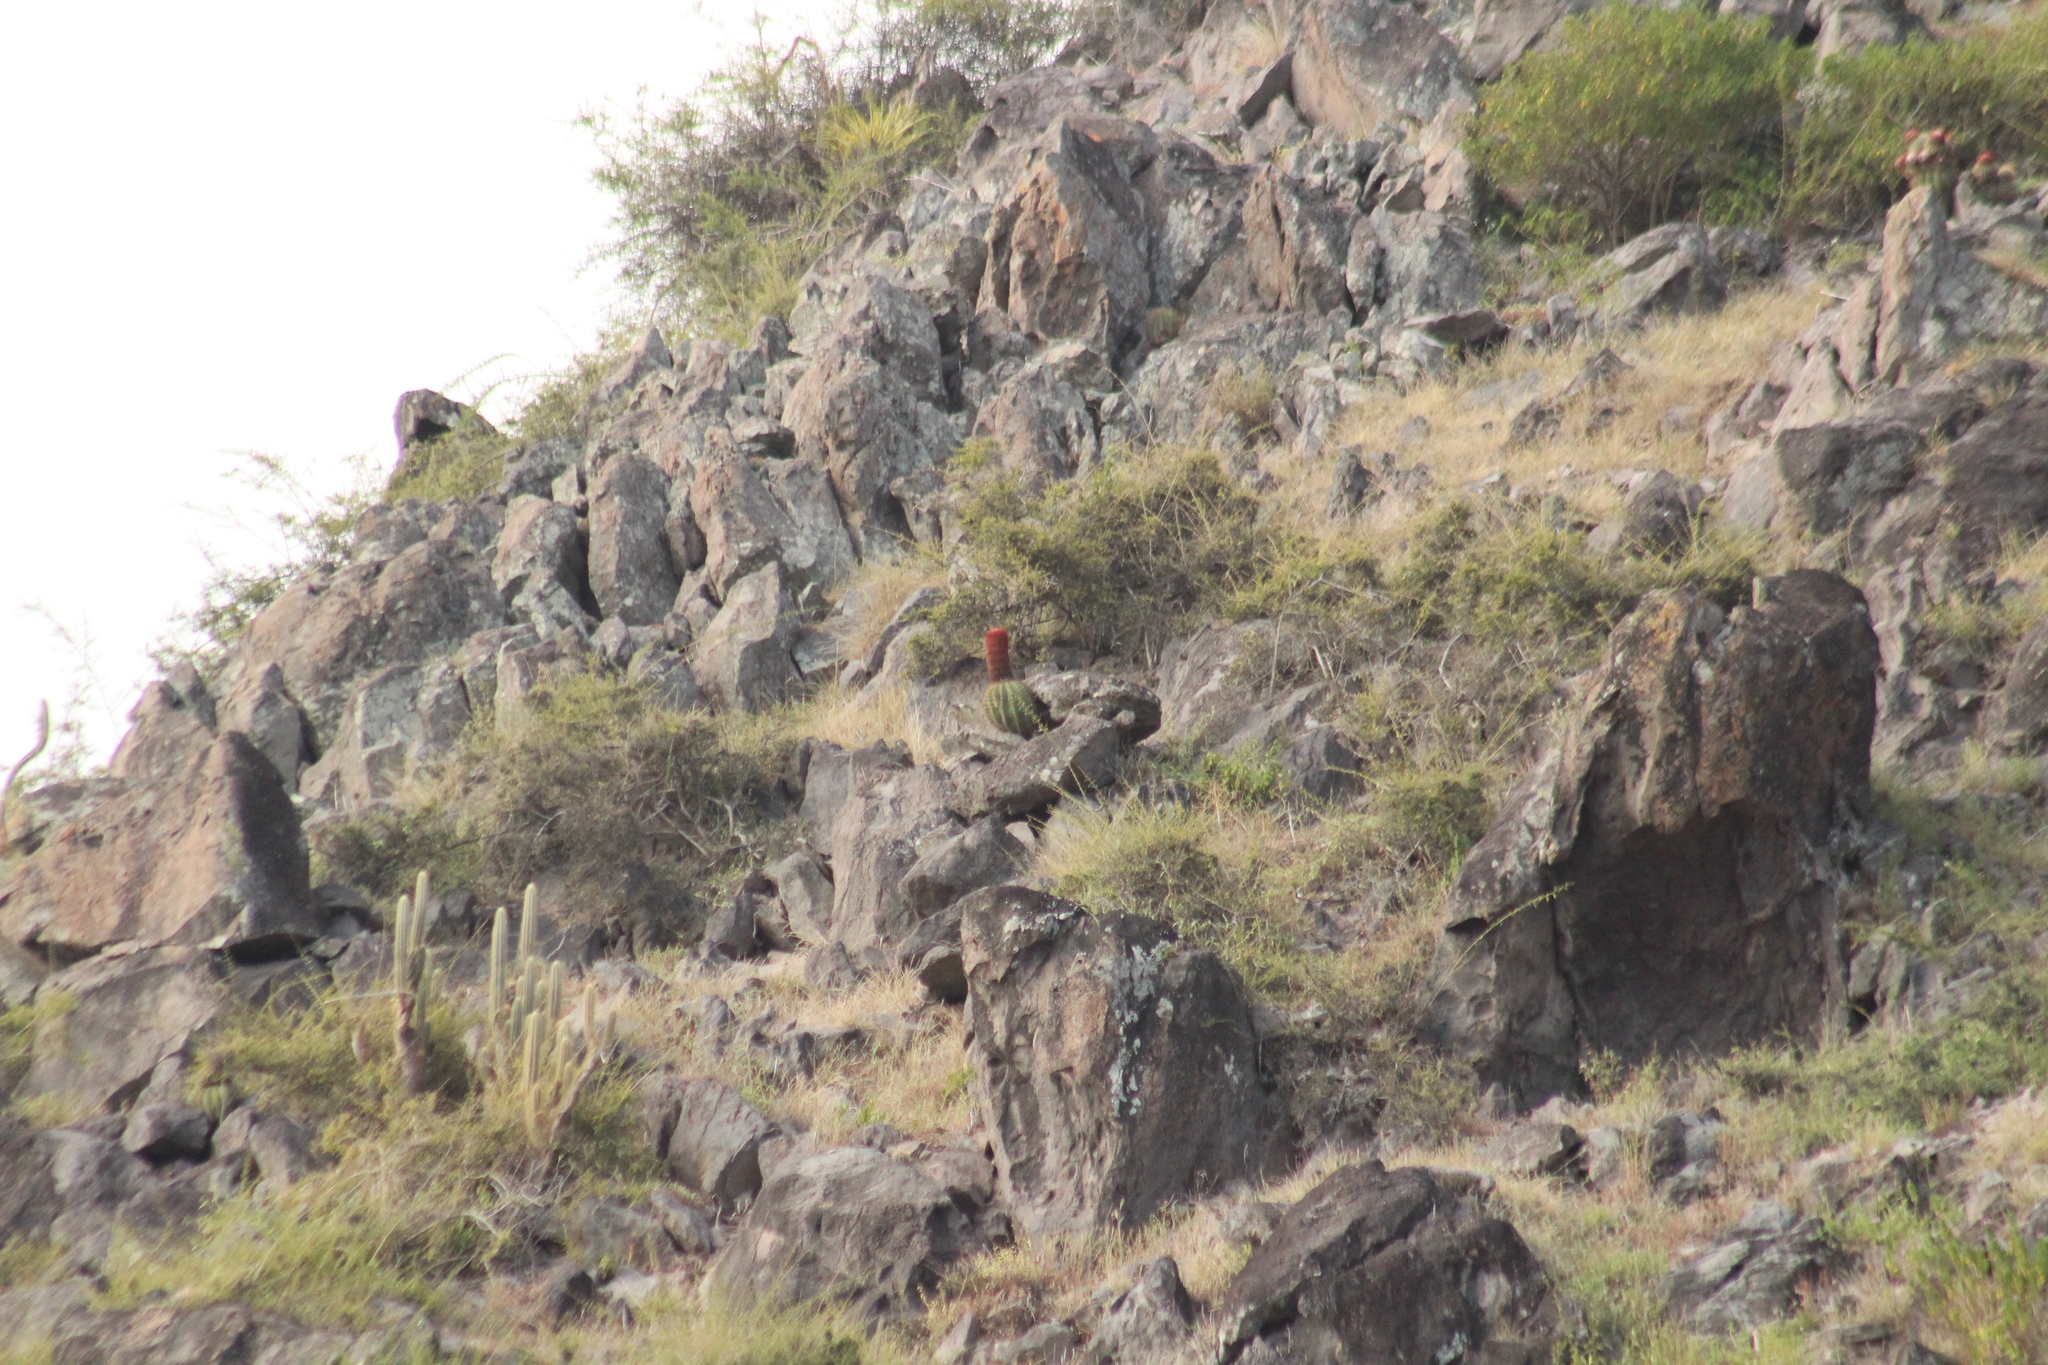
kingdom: Plantae
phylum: Tracheophyta
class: Magnoliopsida
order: Caryophyllales
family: Cactaceae
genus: Melocactus
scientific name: Melocactus intortus
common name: Barrel cactus
